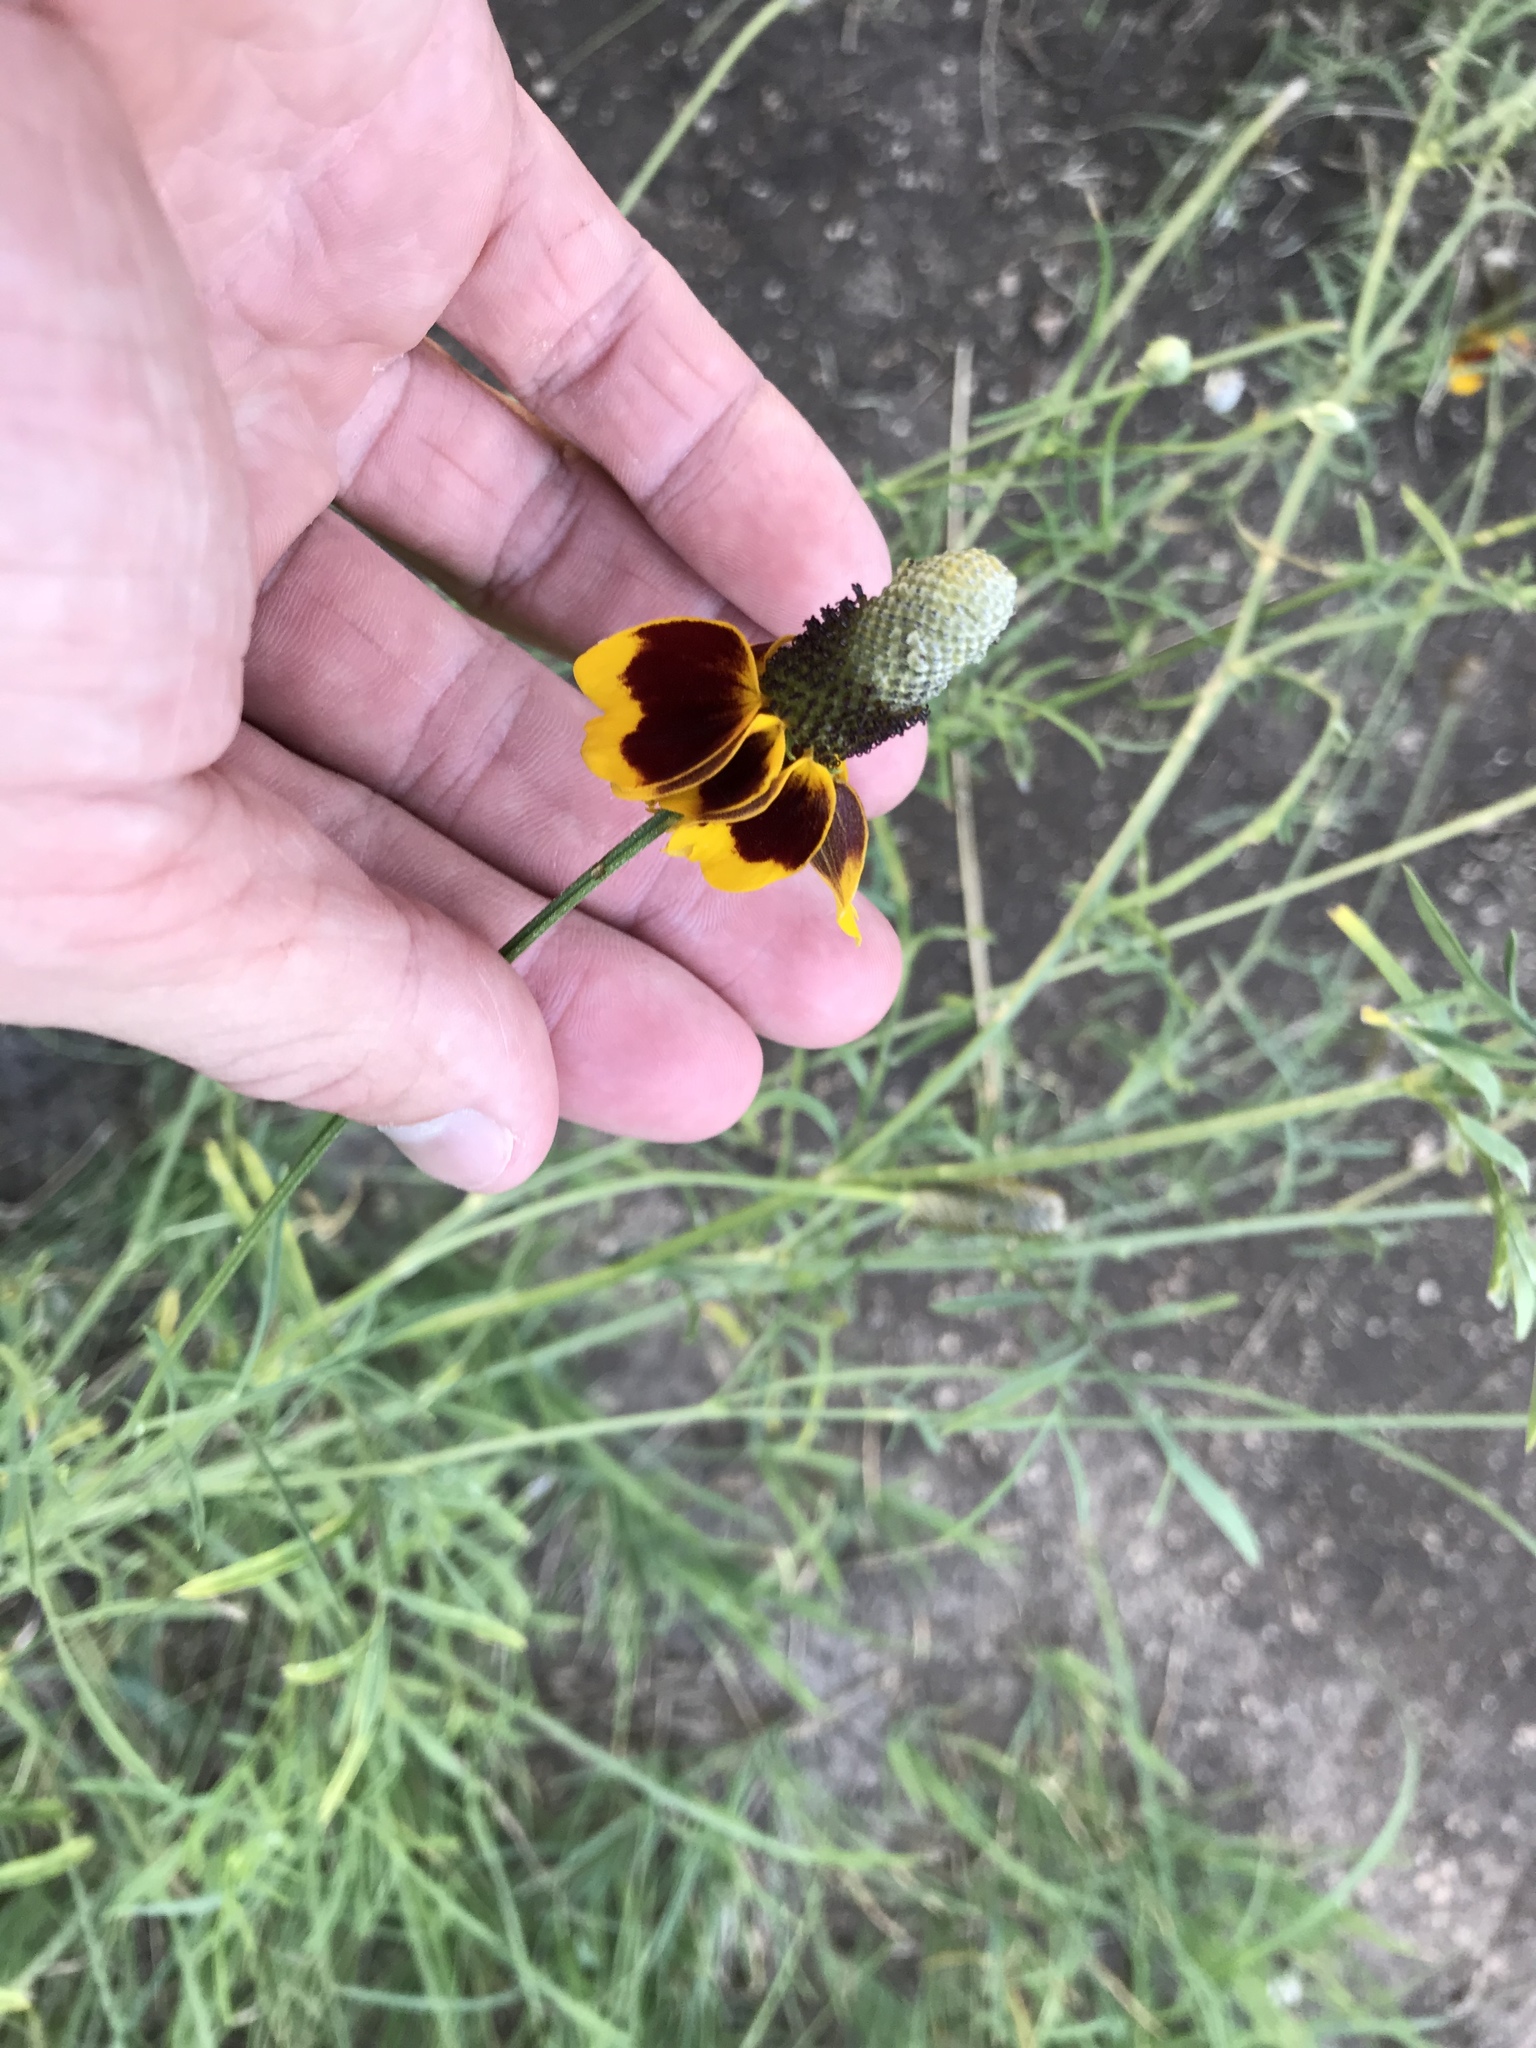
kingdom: Plantae
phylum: Tracheophyta
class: Magnoliopsida
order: Asterales
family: Asteraceae
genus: Ratibida
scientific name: Ratibida columnifera
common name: Prairie coneflower
